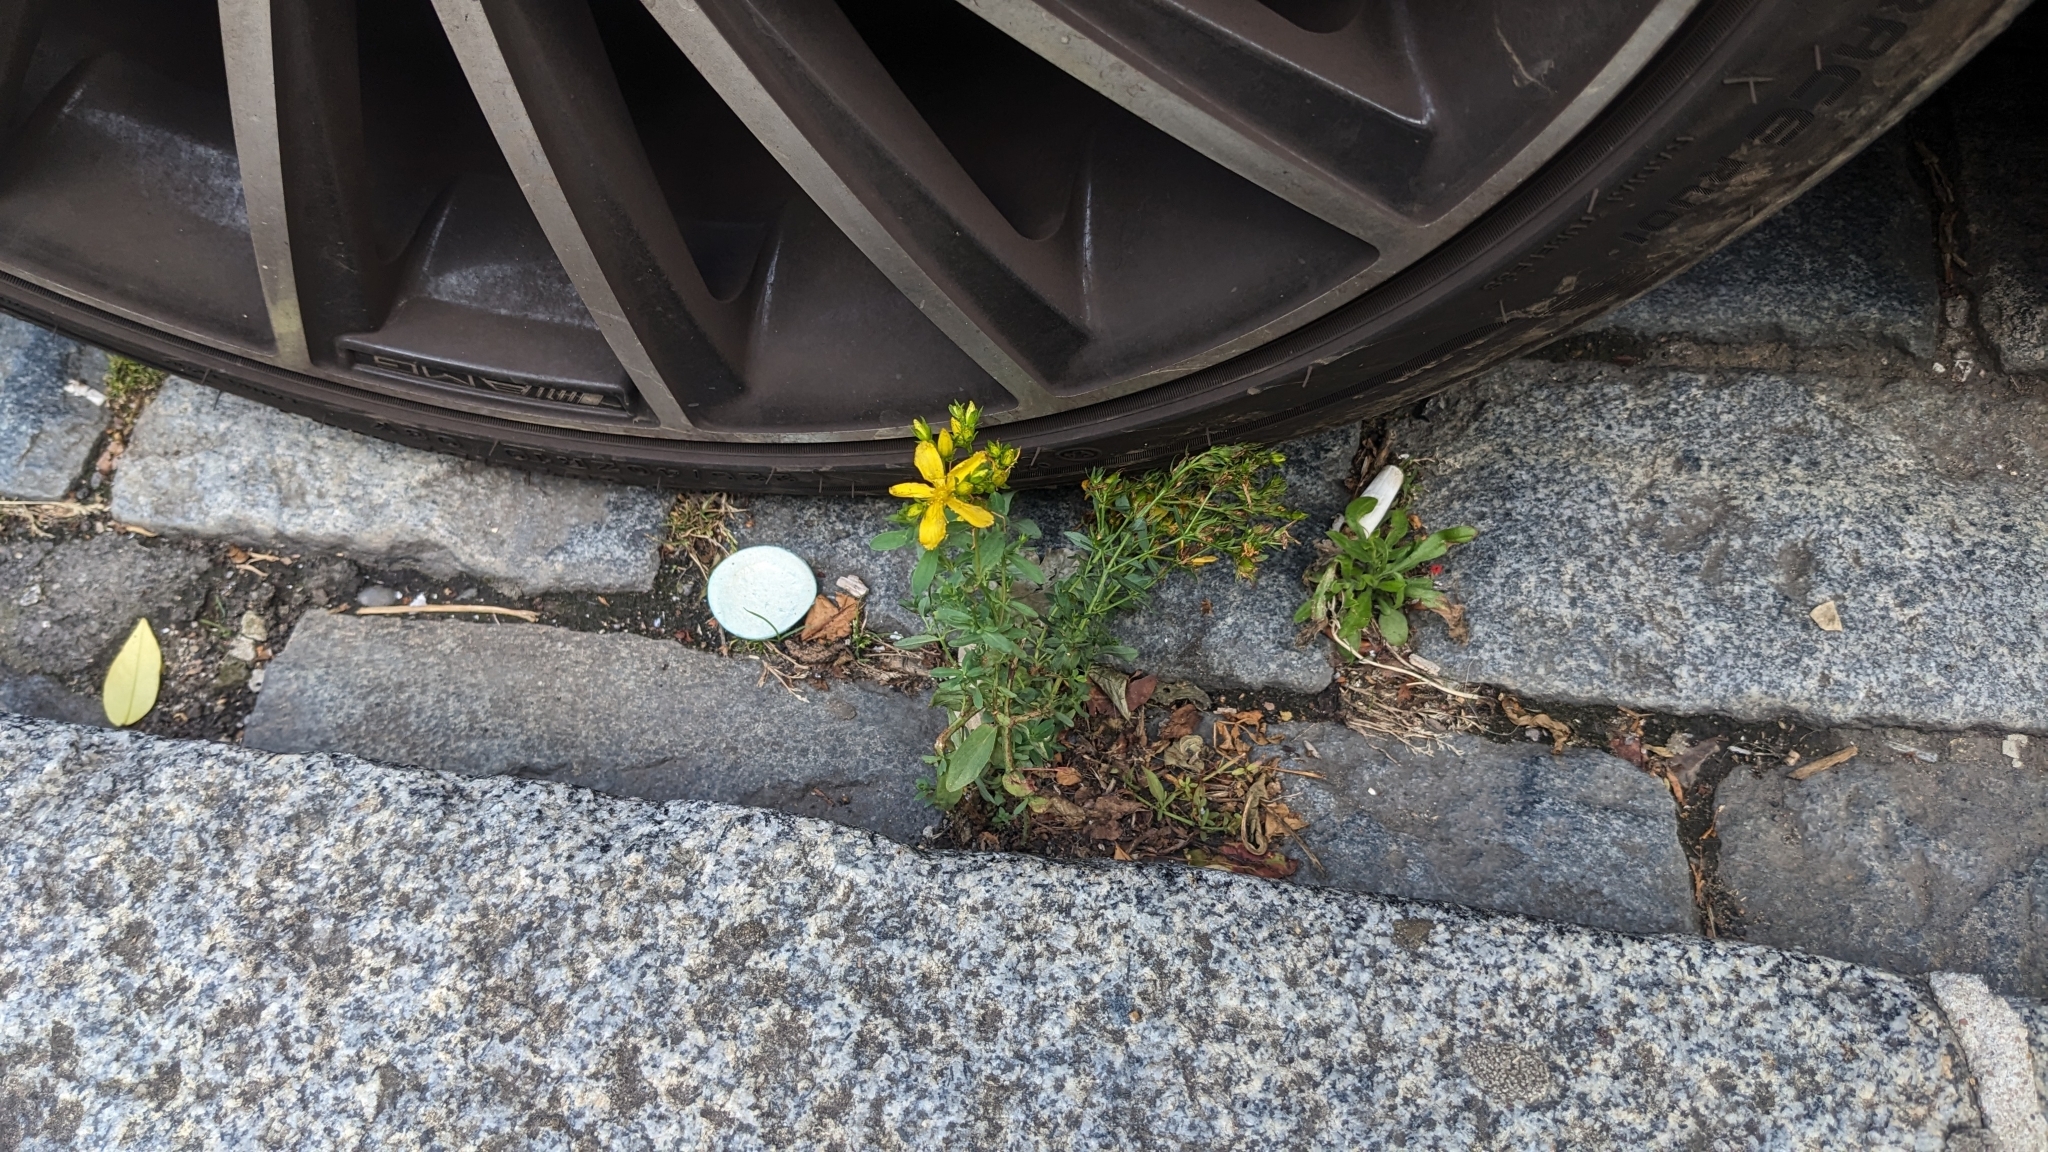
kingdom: Plantae
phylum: Tracheophyta
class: Magnoliopsida
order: Malpighiales
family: Hypericaceae
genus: Hypericum
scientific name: Hypericum perforatum
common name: Common st. johnswort
